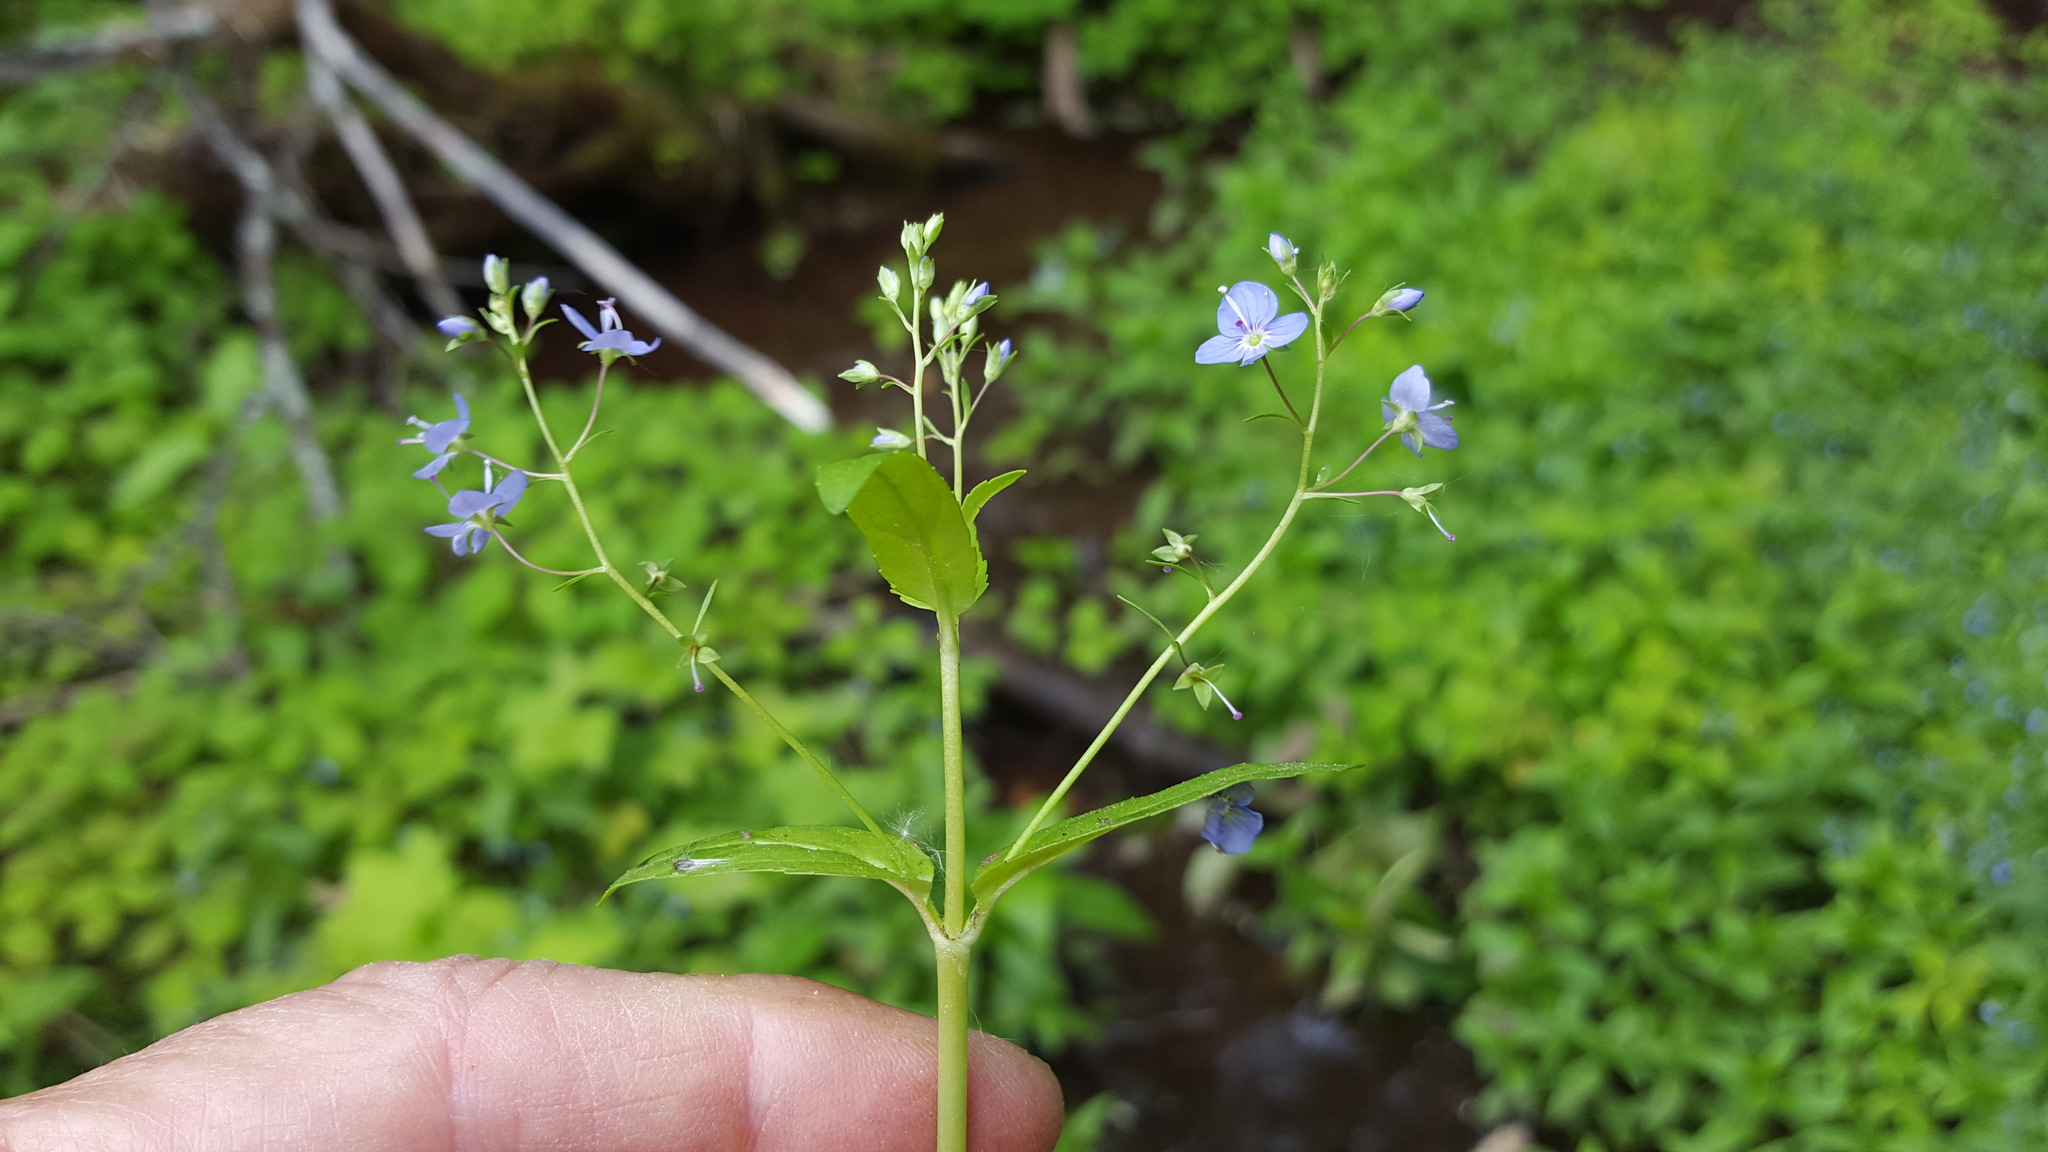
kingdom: Plantae
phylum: Tracheophyta
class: Magnoliopsida
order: Lamiales
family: Plantaginaceae
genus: Veronica
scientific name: Veronica americana
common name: American brooklime
